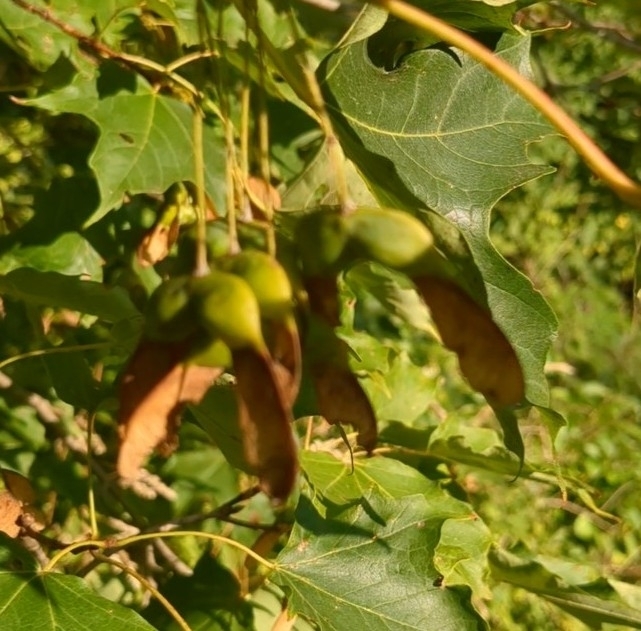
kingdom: Plantae
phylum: Tracheophyta
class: Magnoliopsida
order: Sapindales
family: Sapindaceae
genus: Acer
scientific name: Acer saccharum
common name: Sugar maple
